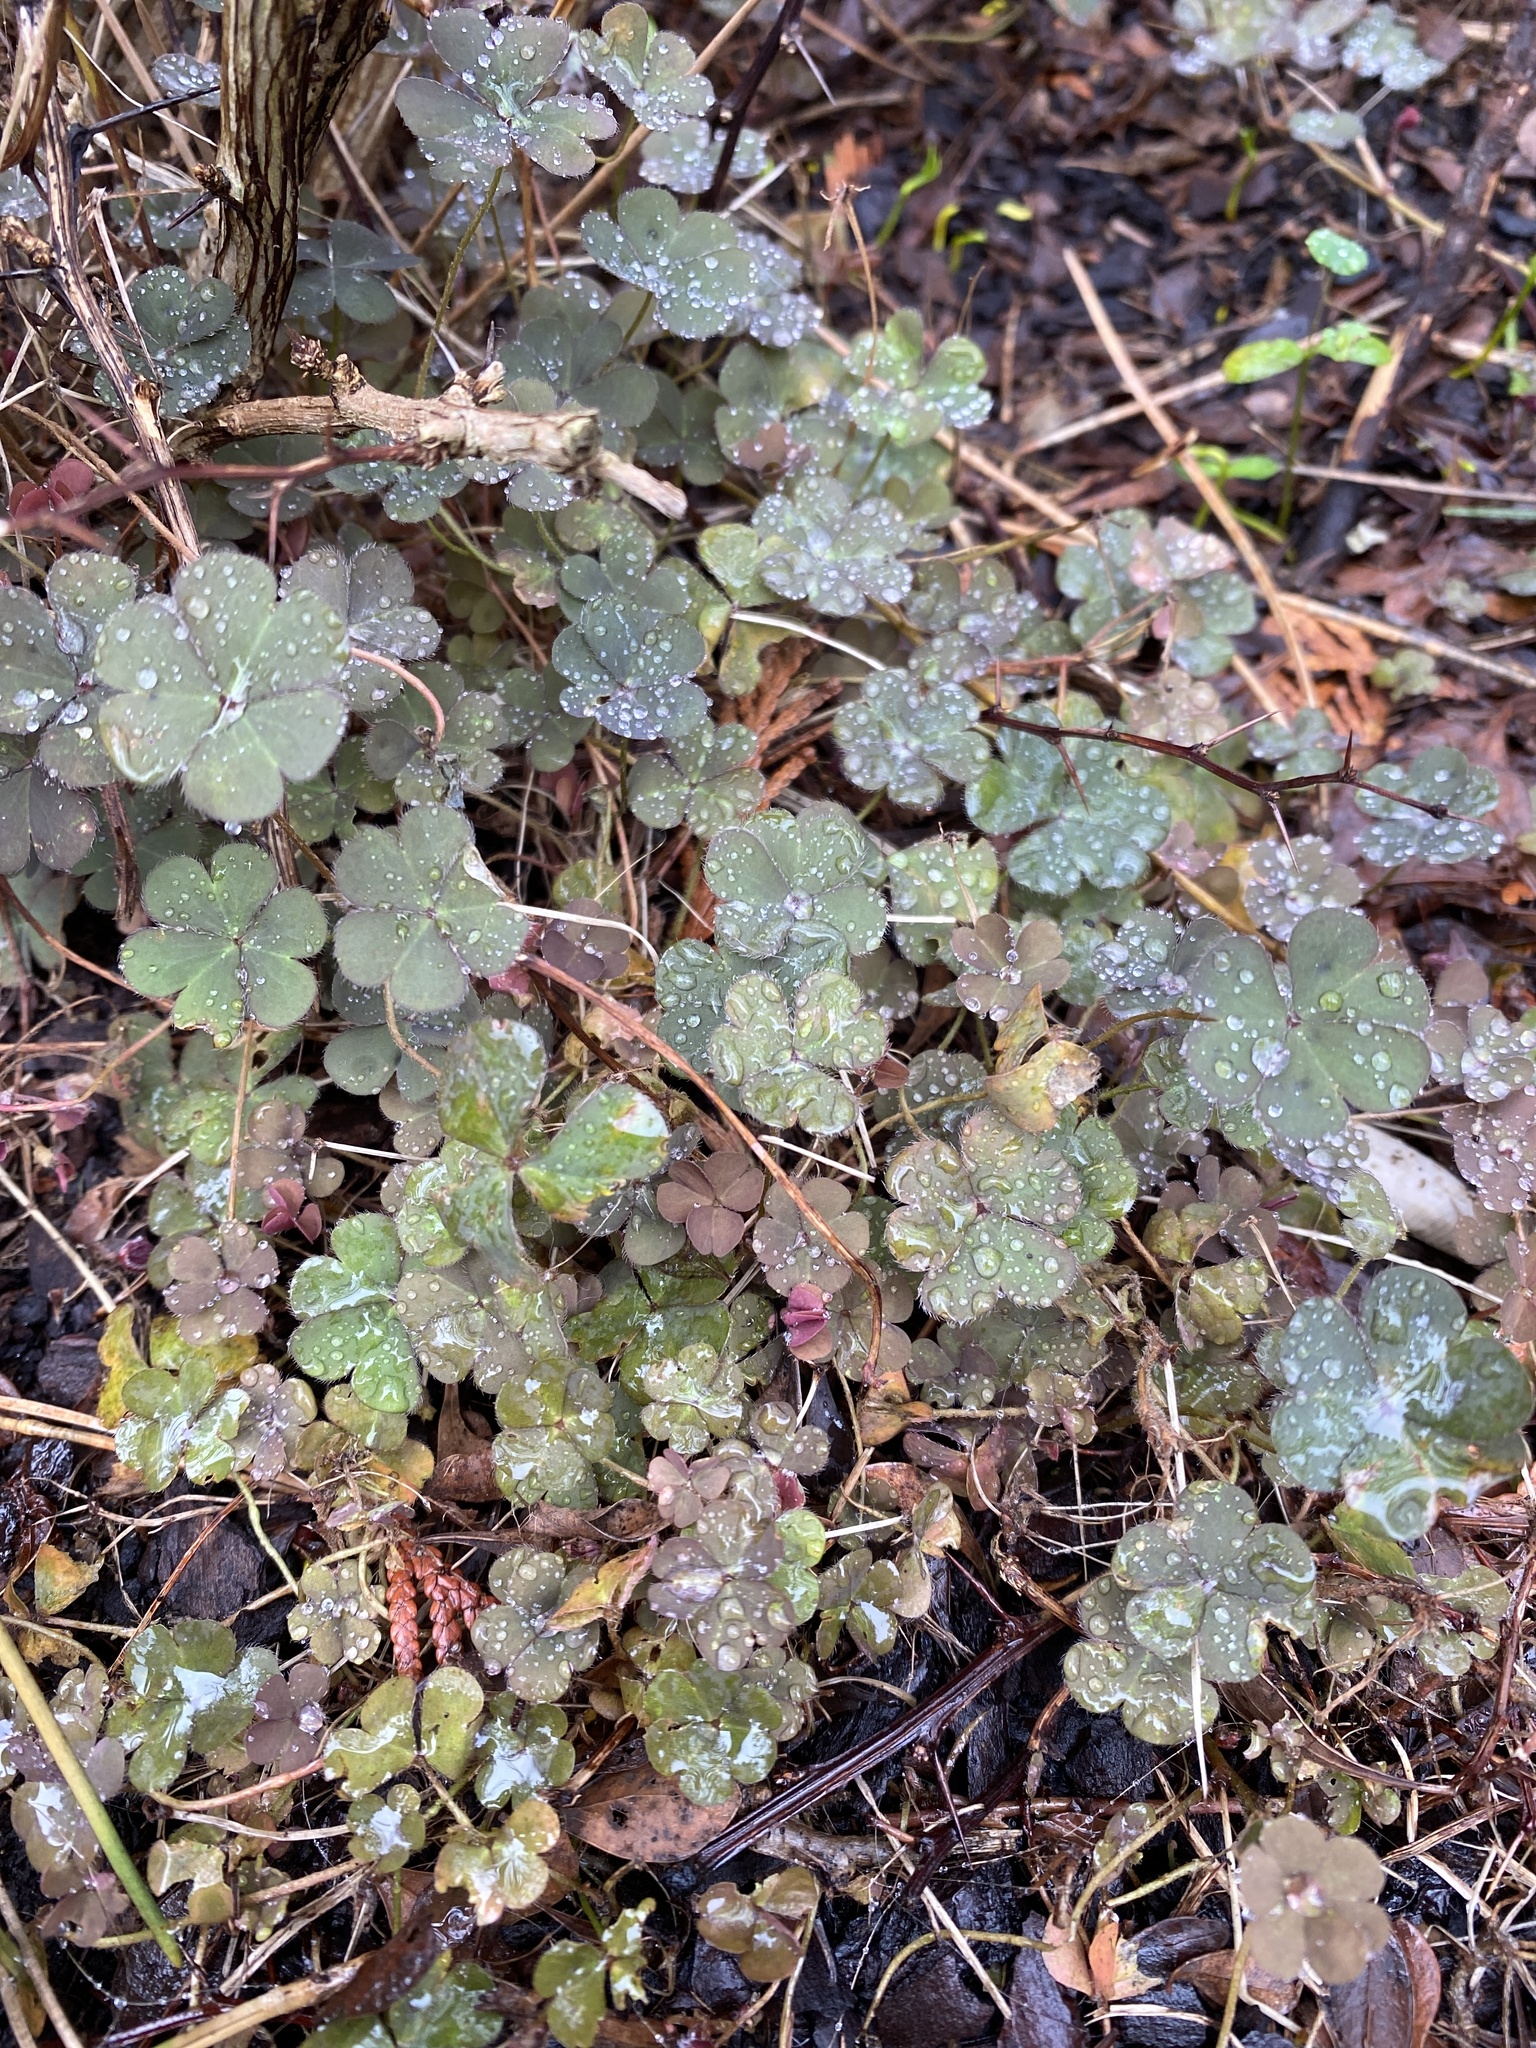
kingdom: Plantae
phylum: Tracheophyta
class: Magnoliopsida
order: Oxalidales
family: Oxalidaceae
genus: Oxalis
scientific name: Oxalis corniculata
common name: Procumbent yellow-sorrel
